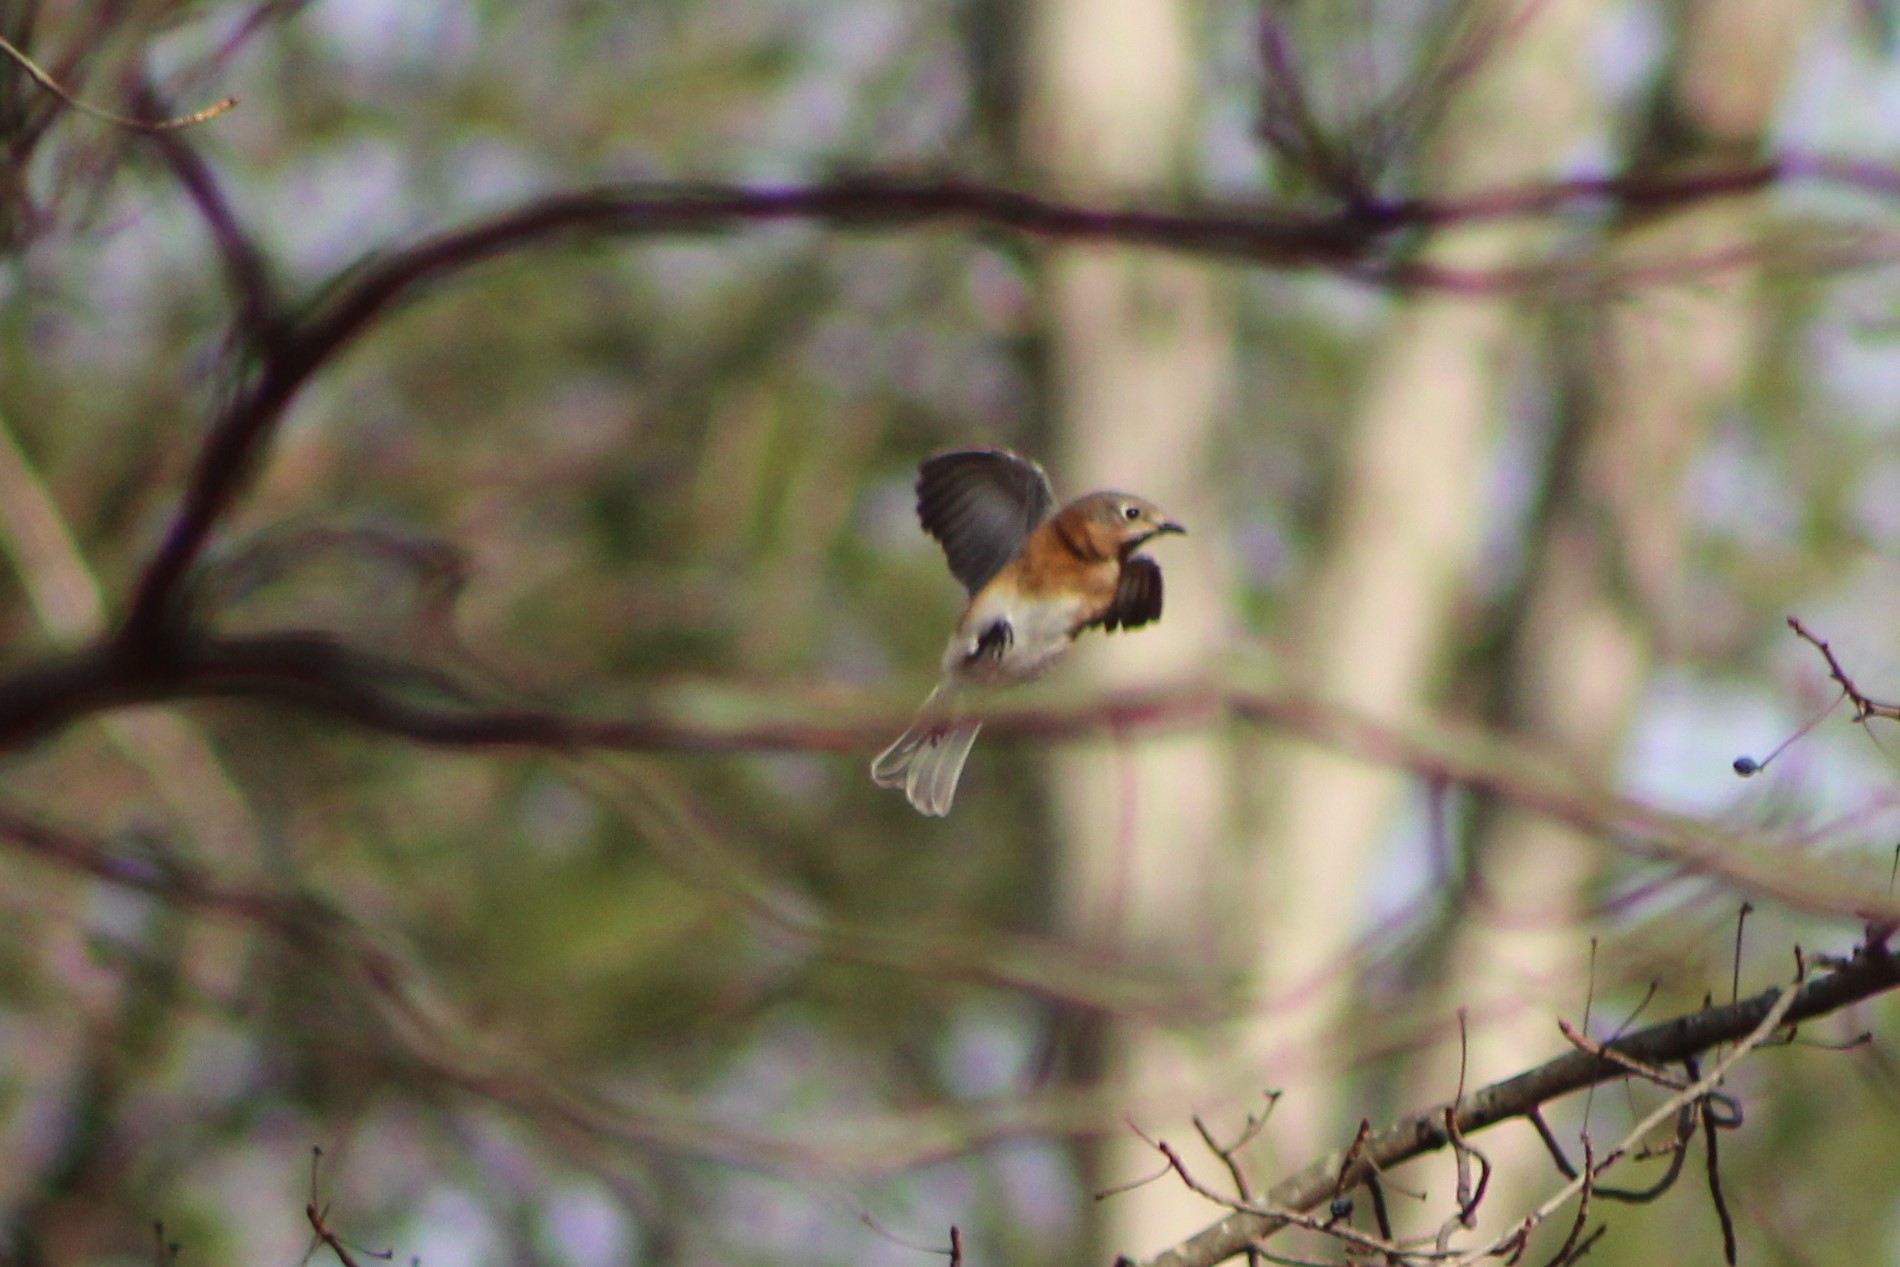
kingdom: Animalia
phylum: Chordata
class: Aves
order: Passeriformes
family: Turdidae
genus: Sialia
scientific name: Sialia sialis
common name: Eastern bluebird
